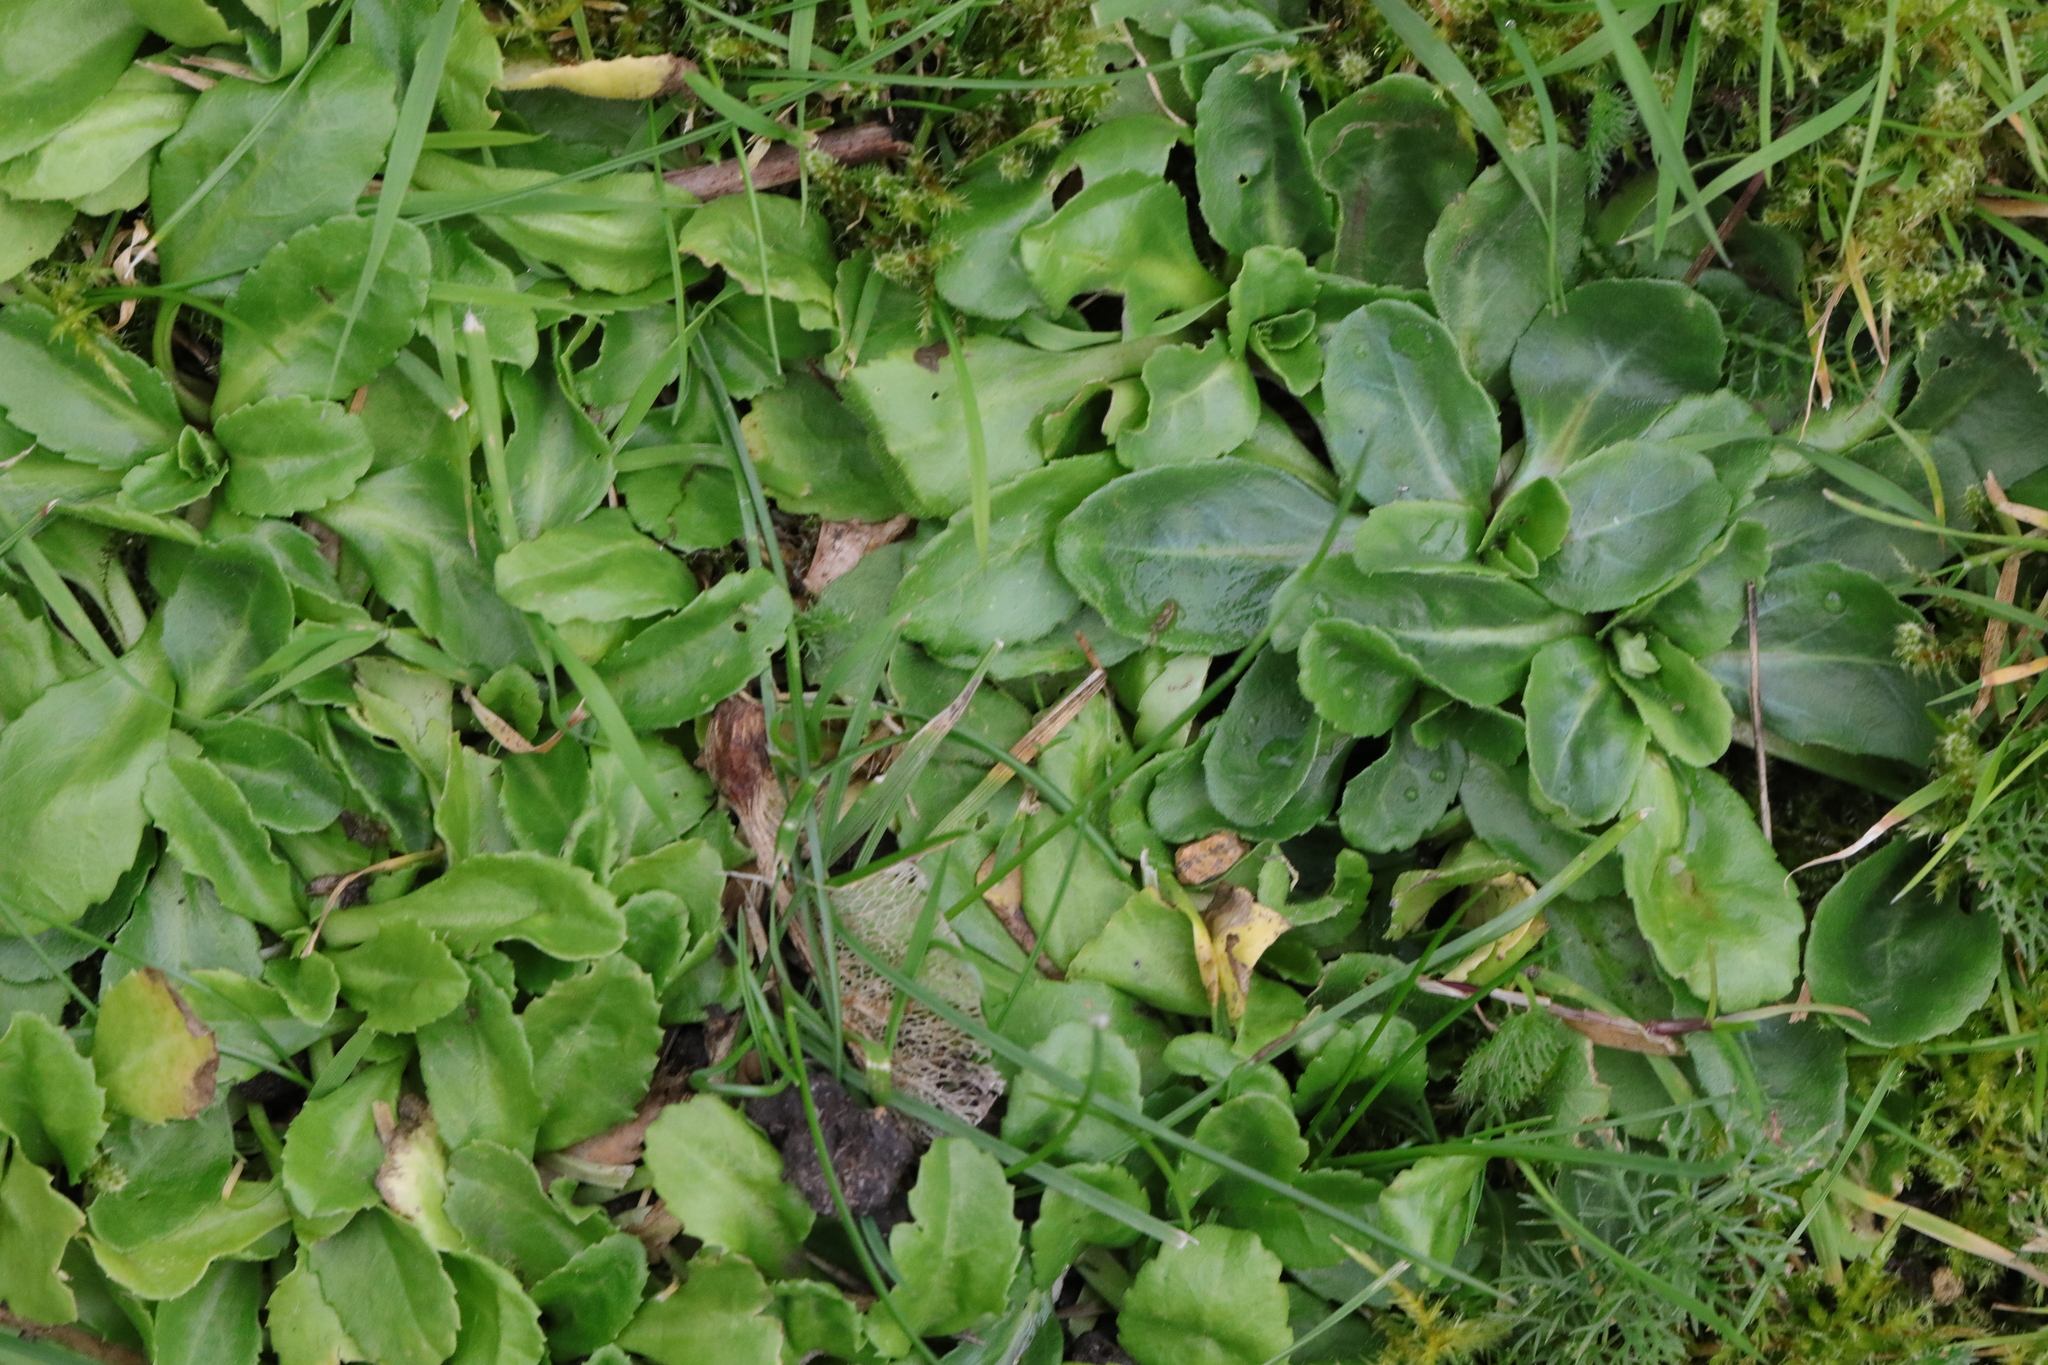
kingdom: Plantae
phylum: Tracheophyta
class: Magnoliopsida
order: Asterales
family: Asteraceae
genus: Bellis
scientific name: Bellis perennis
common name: Lawndaisy
